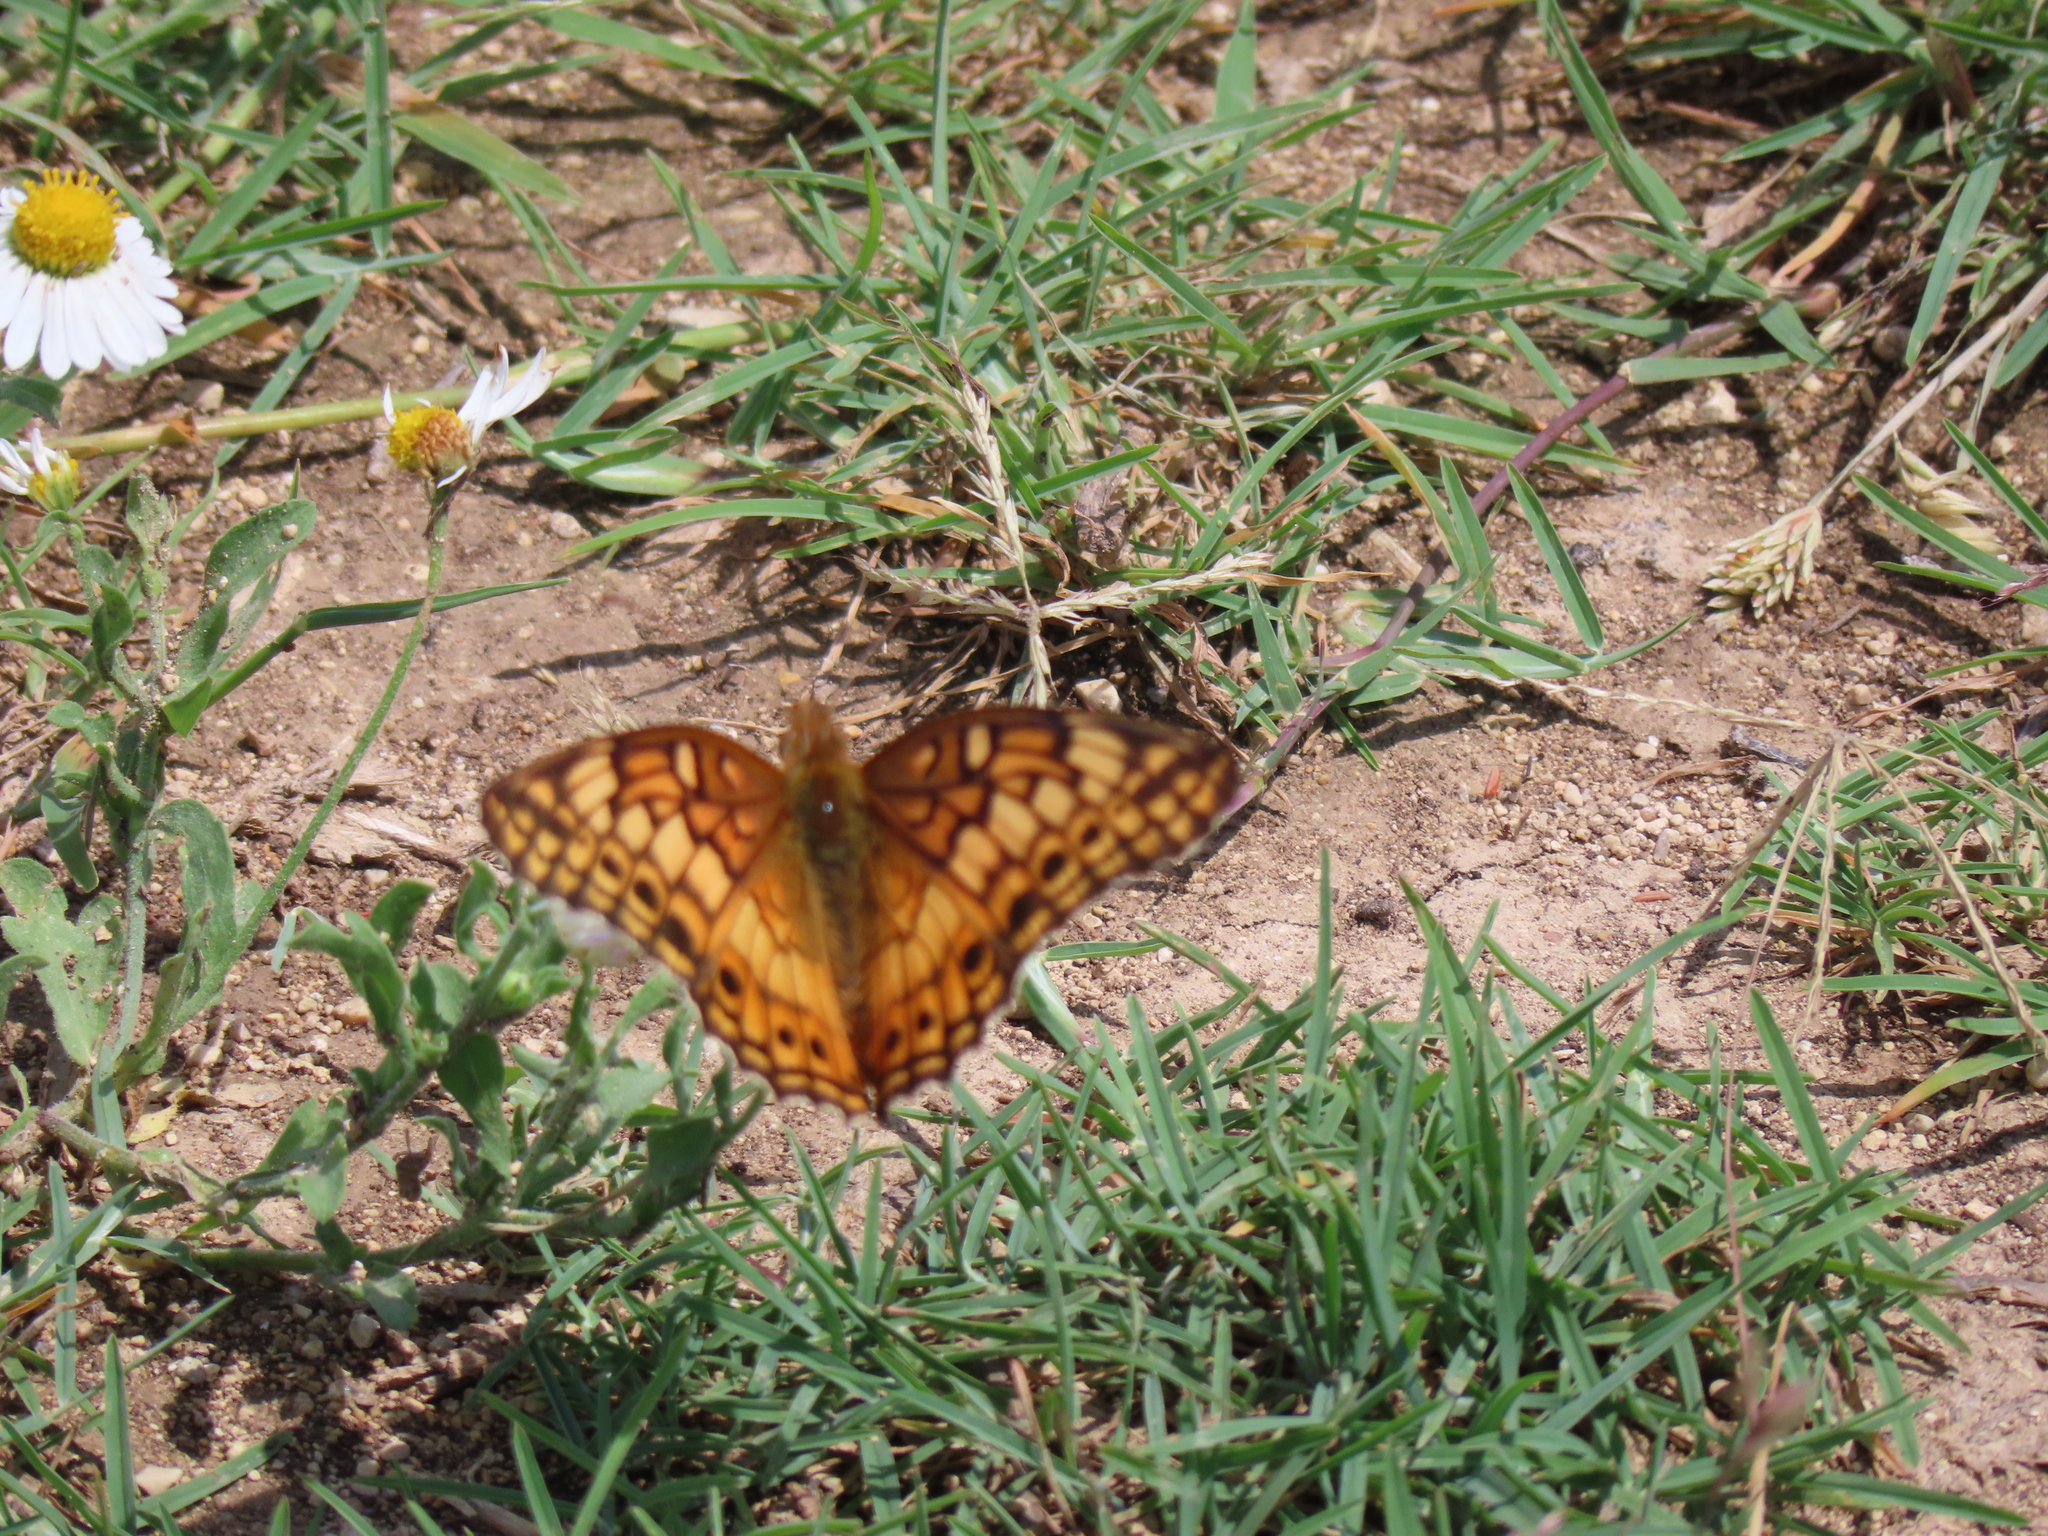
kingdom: Animalia
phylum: Arthropoda
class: Insecta
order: Lepidoptera
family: Nymphalidae
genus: Euptoieta
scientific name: Euptoieta claudia
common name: Variegated fritillary
